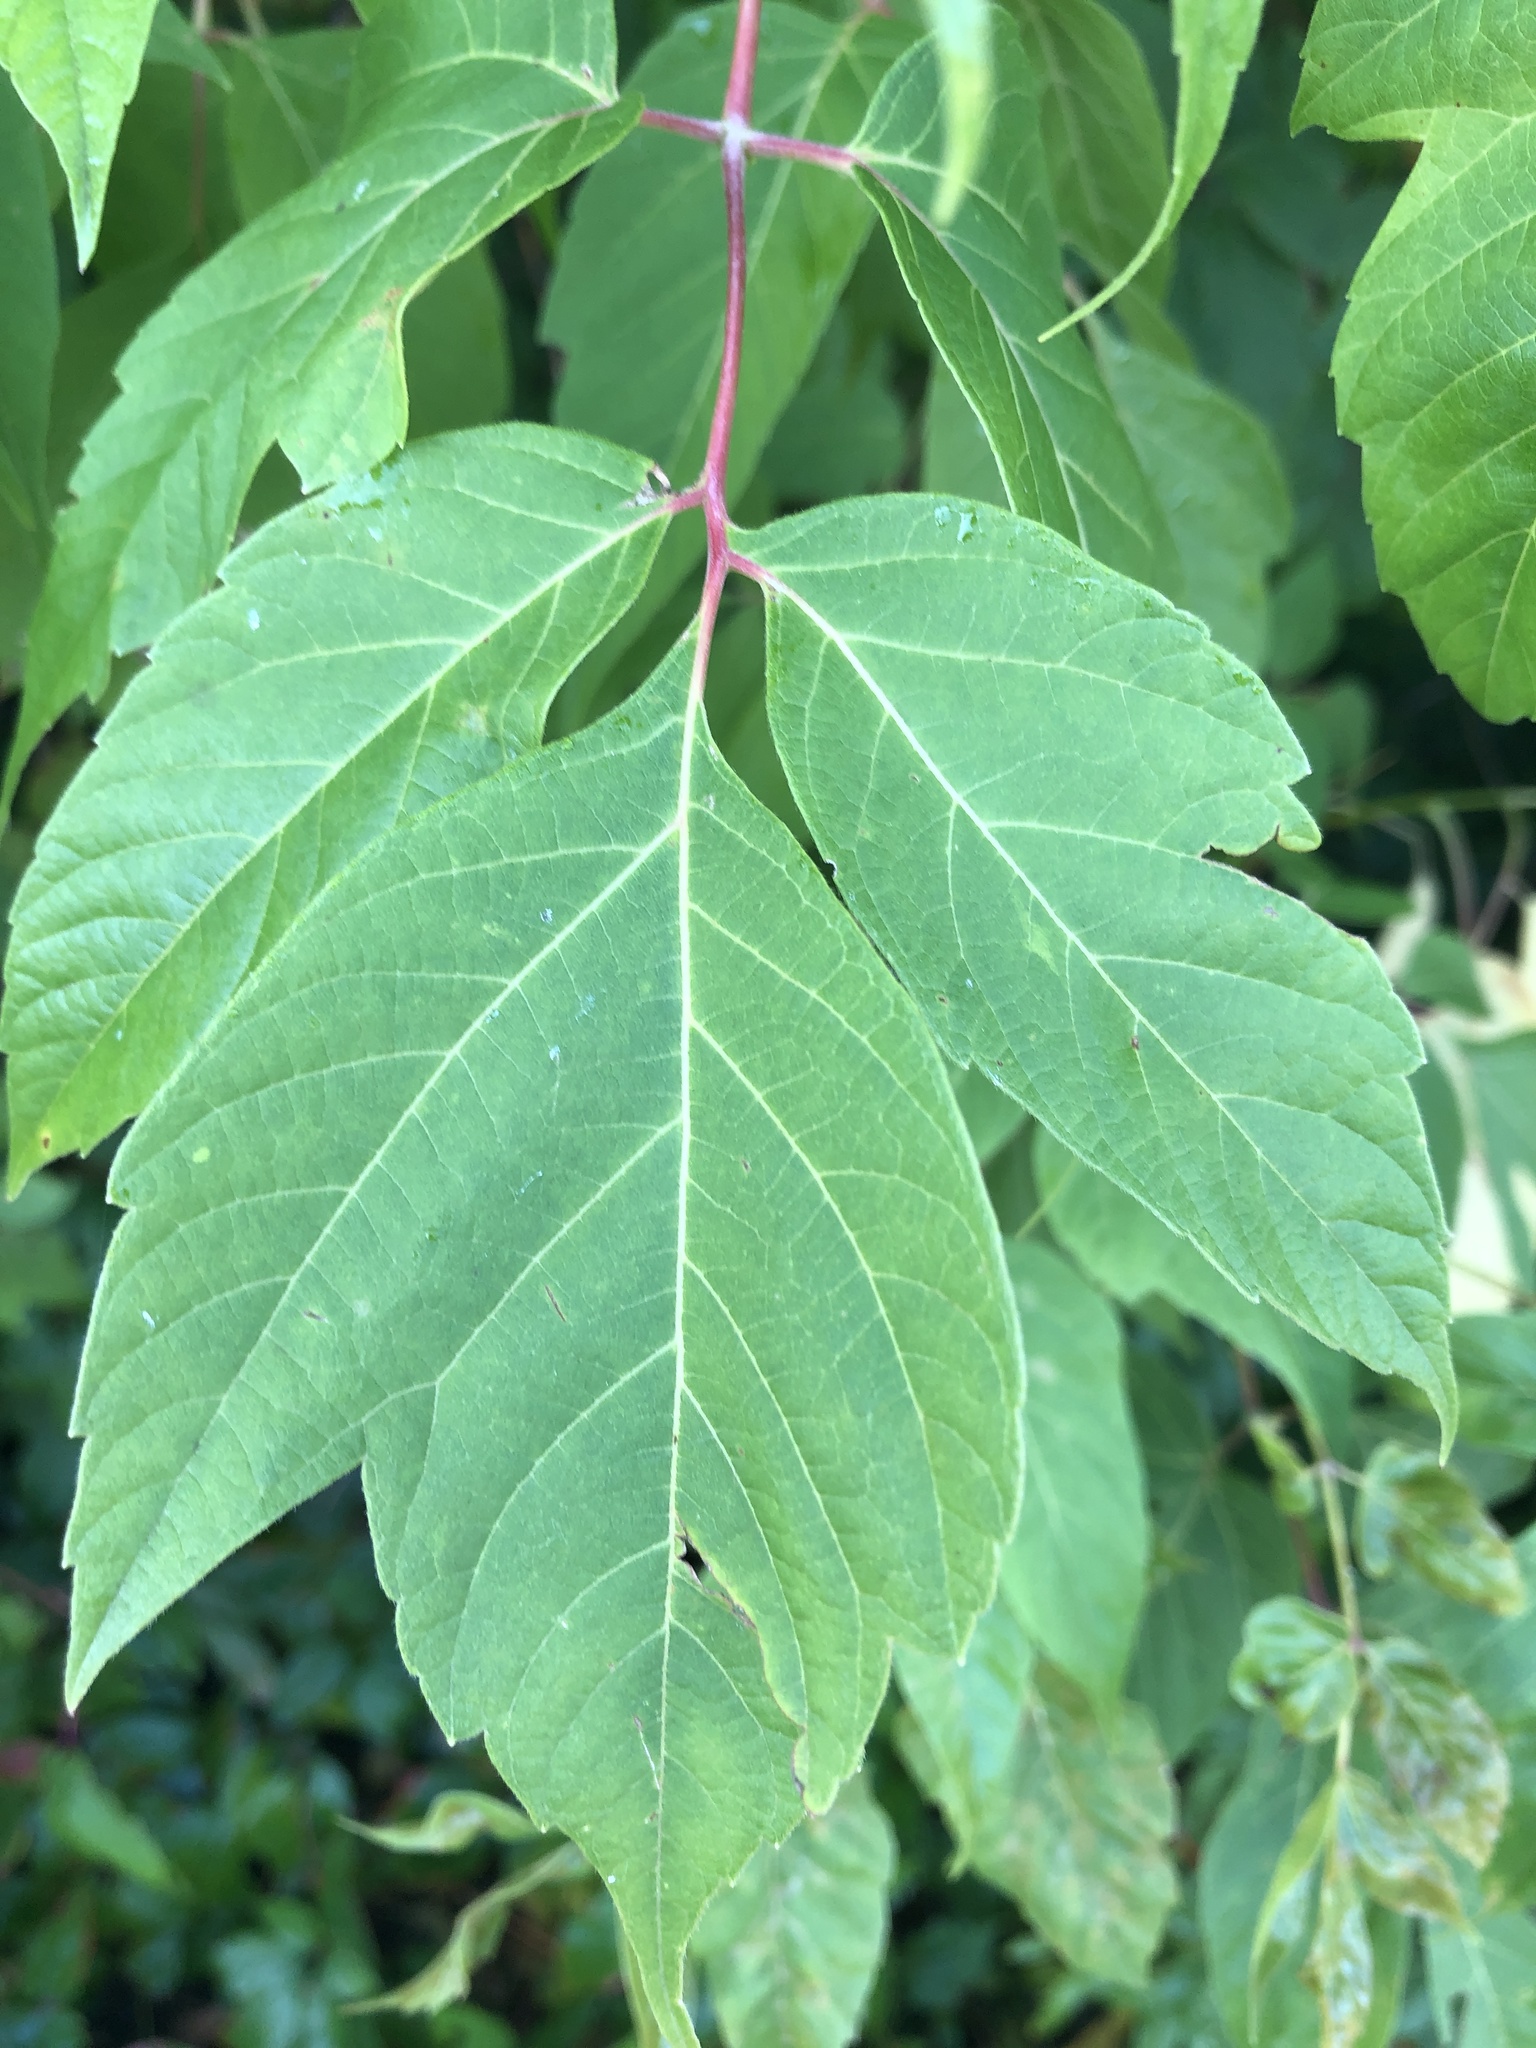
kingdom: Plantae
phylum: Tracheophyta
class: Magnoliopsida
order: Sapindales
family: Sapindaceae
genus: Acer
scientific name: Acer negundo
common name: Ashleaf maple
